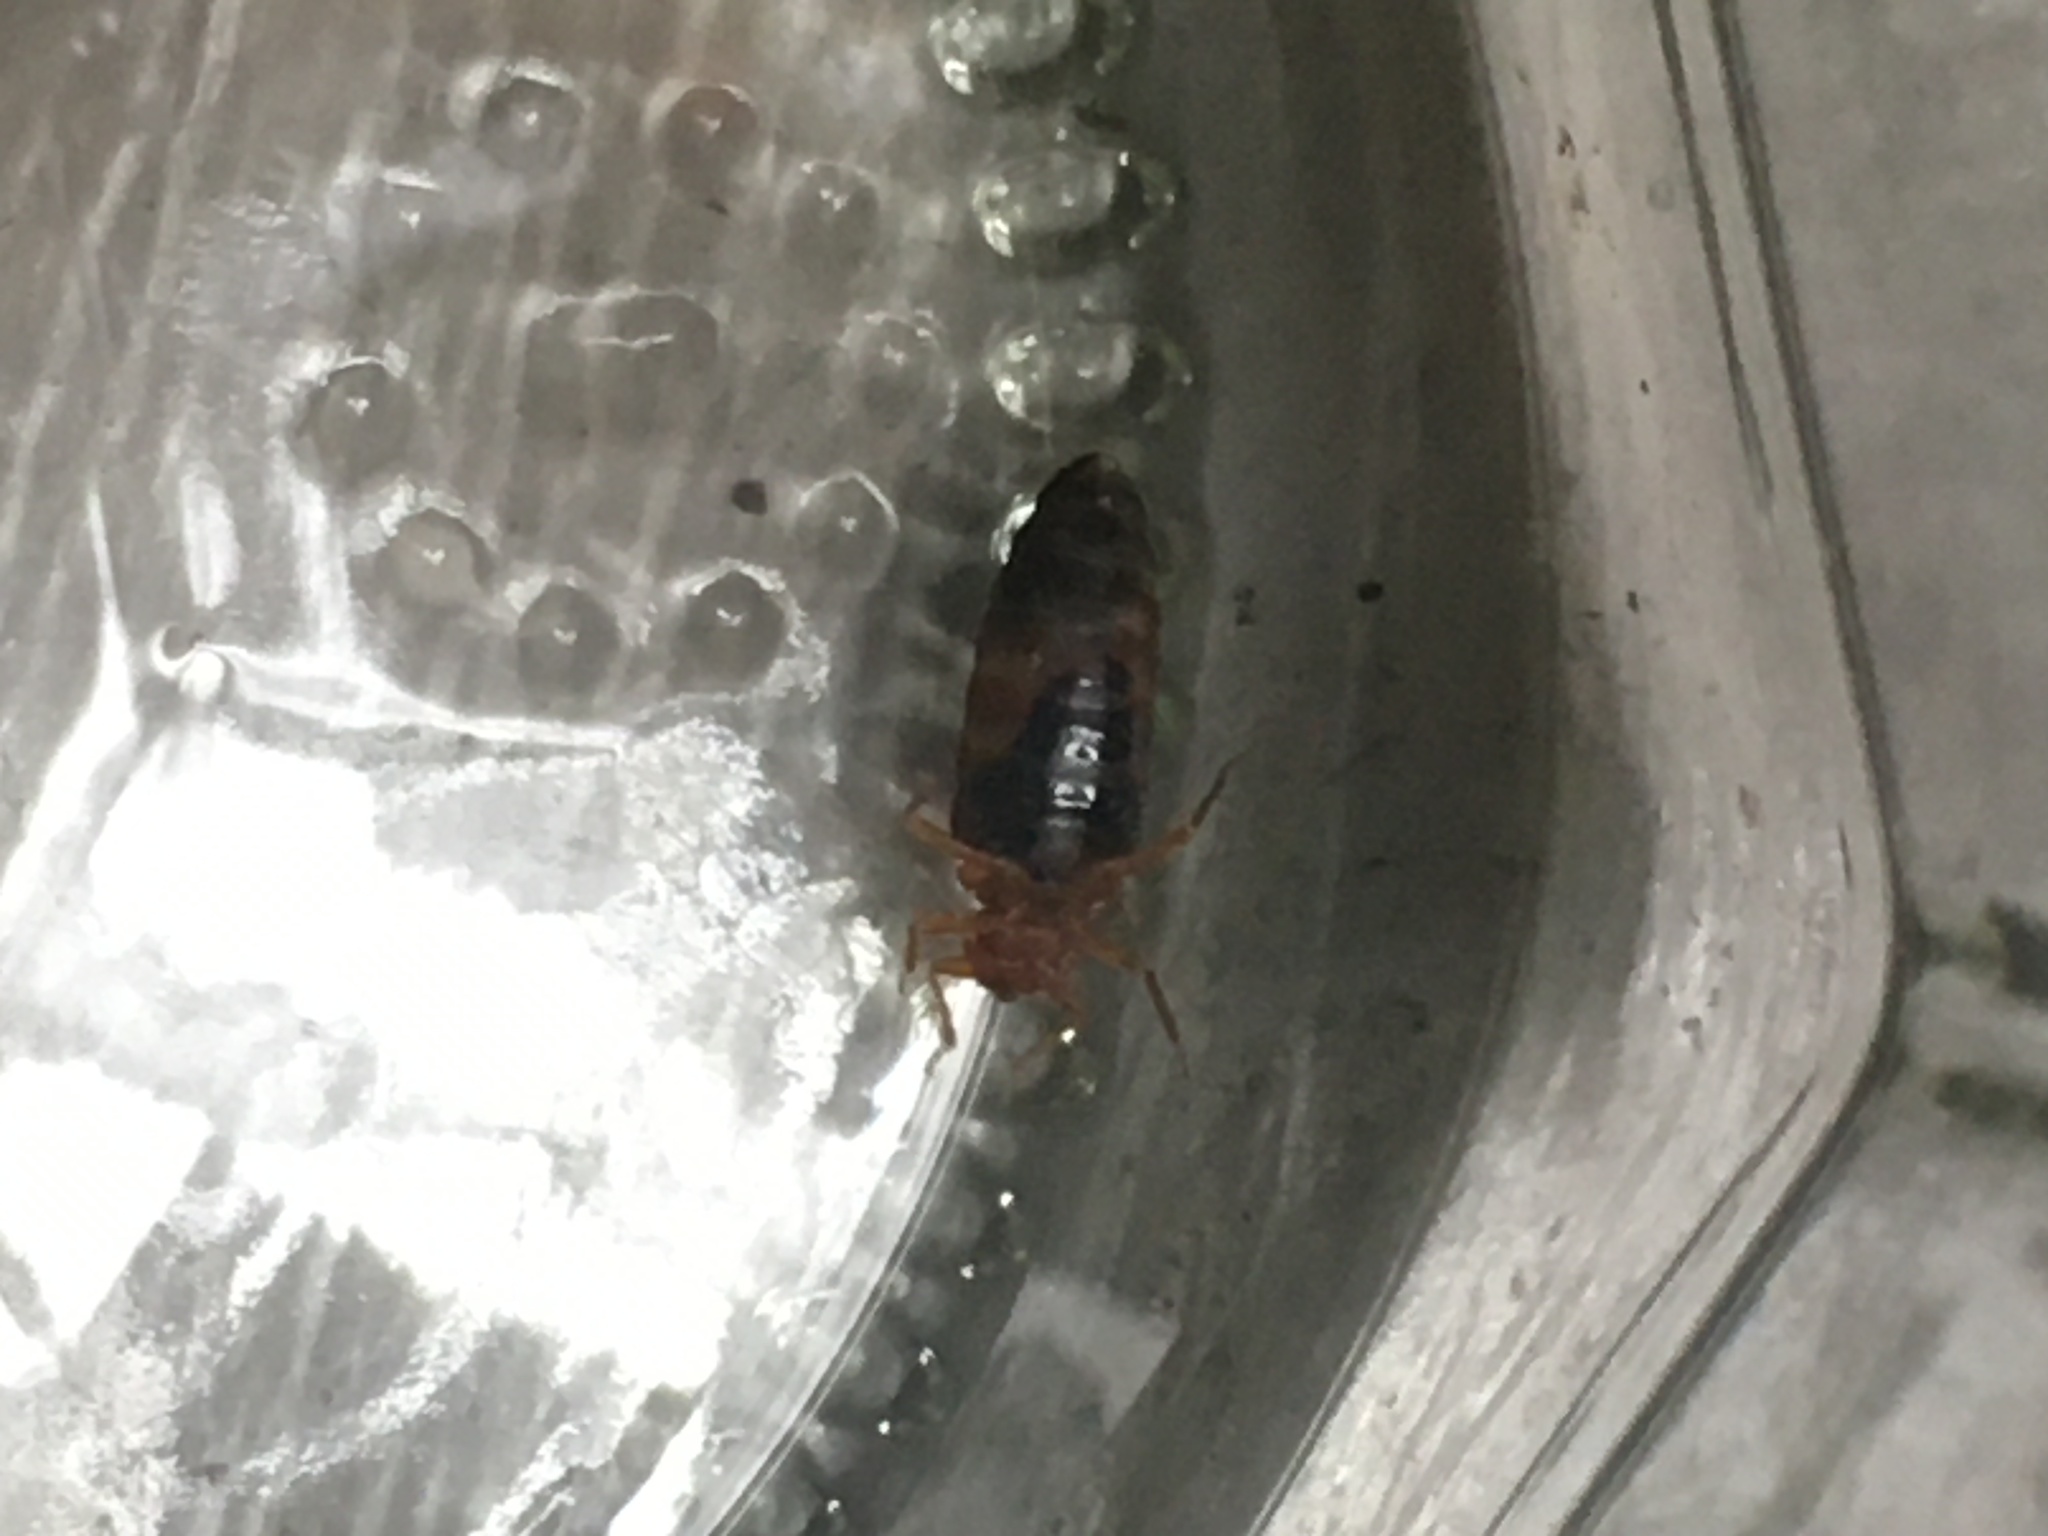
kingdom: Animalia
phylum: Arthropoda
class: Insecta
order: Hemiptera
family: Cimicidae
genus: Cimex
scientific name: Cimex lectularius
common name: Bed bug
